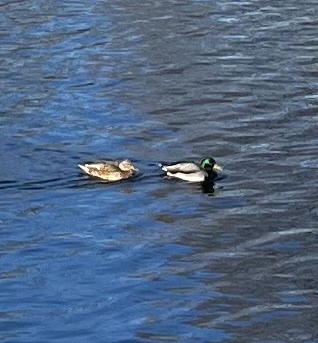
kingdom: Animalia
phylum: Chordata
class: Aves
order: Anseriformes
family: Anatidae
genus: Anas
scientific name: Anas platyrhynchos
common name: Mallard
